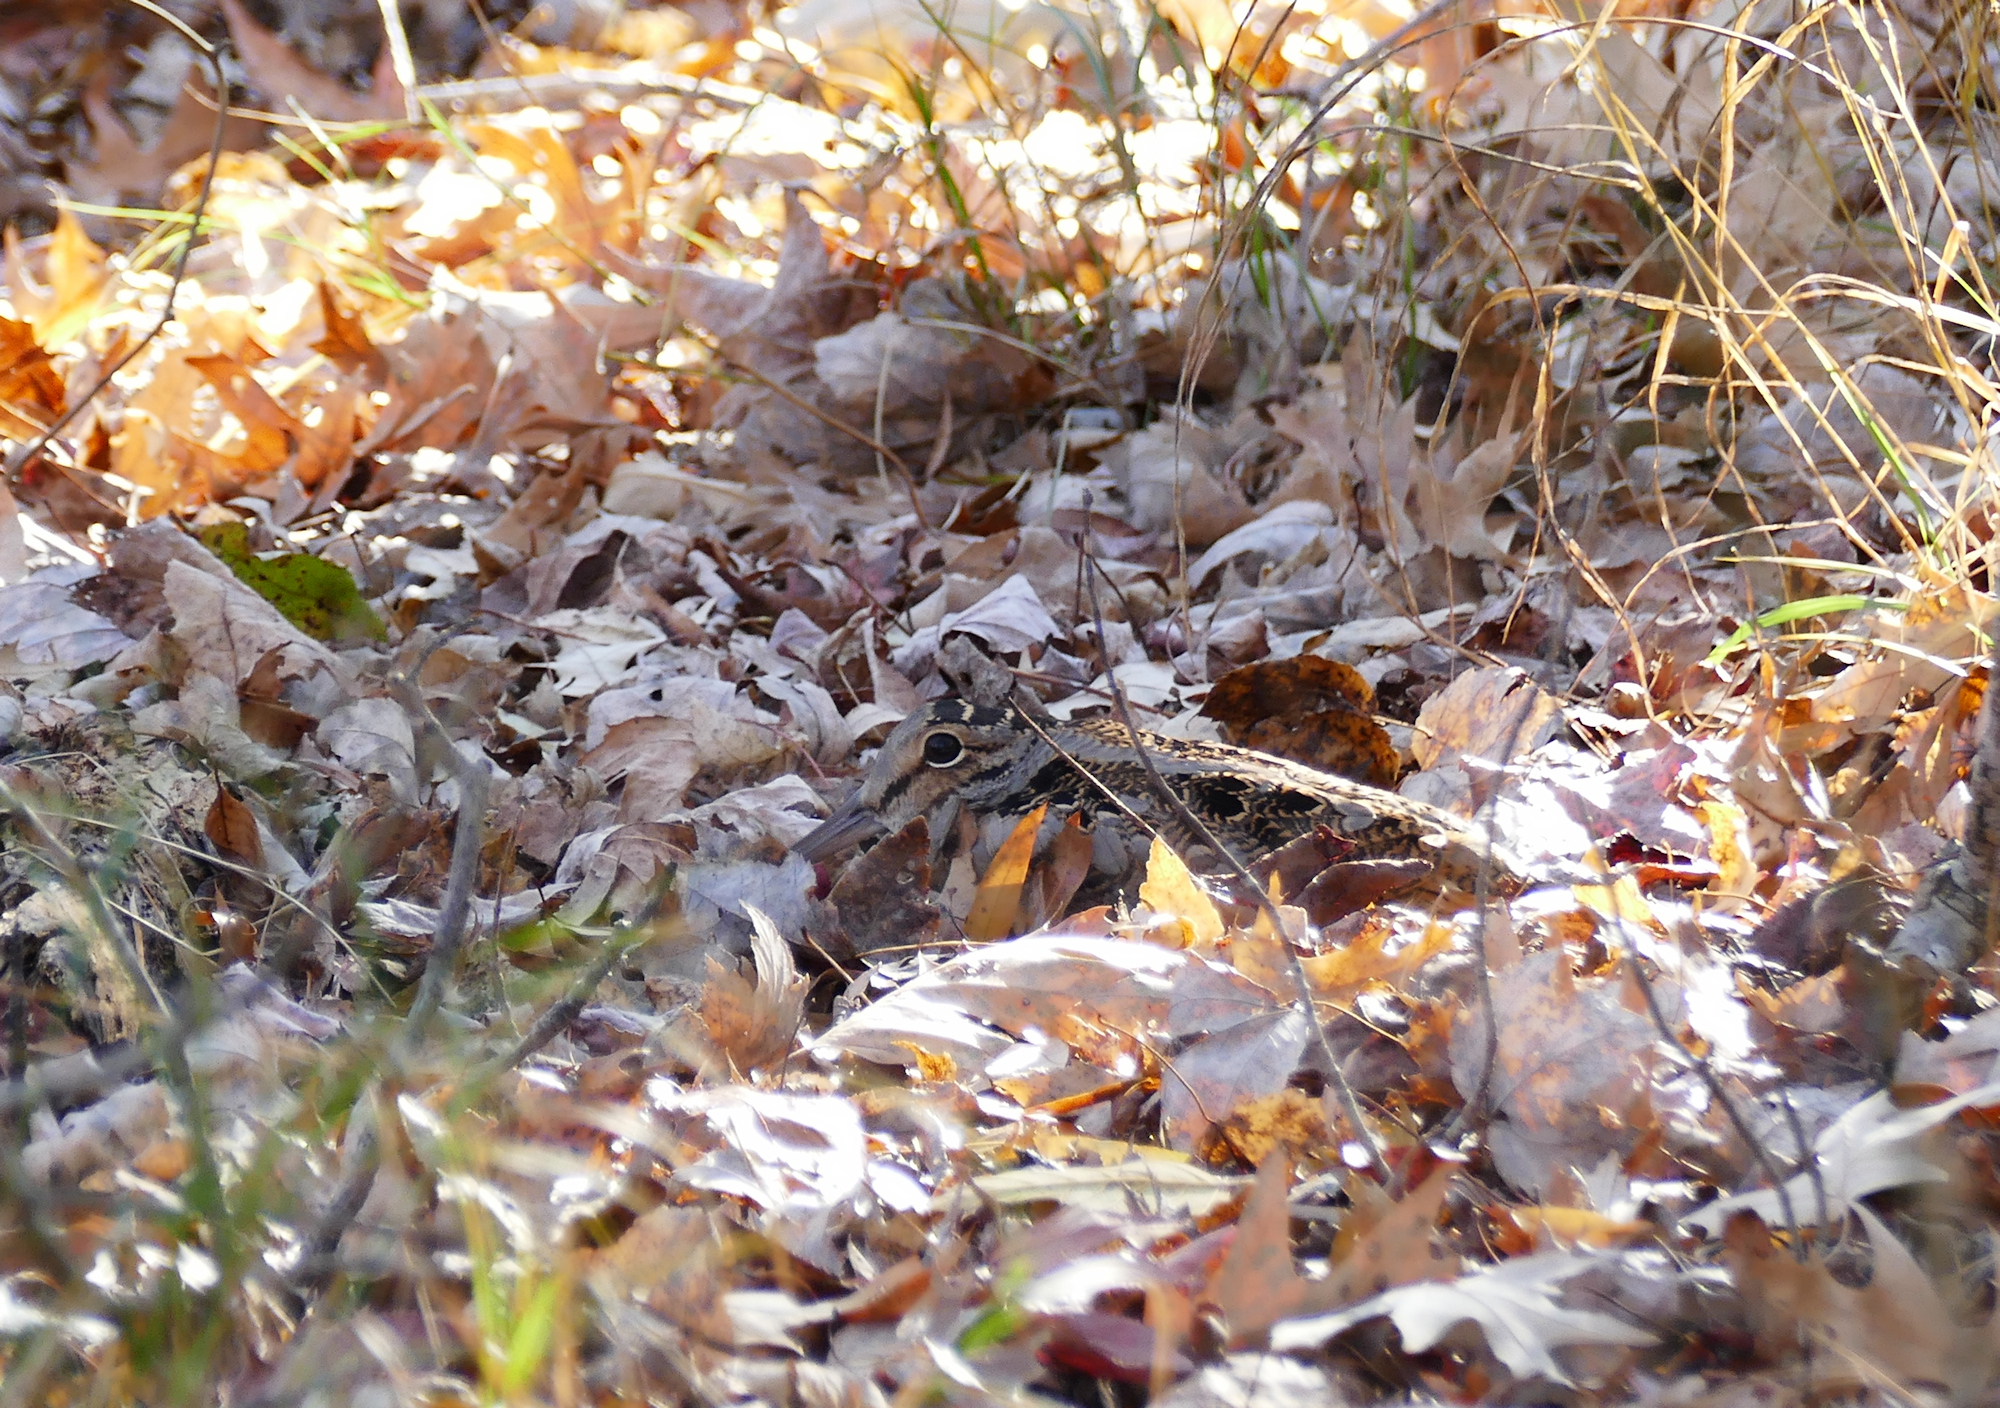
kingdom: Animalia
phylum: Chordata
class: Aves
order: Charadriiformes
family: Scolopacidae
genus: Scolopax
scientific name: Scolopax minor
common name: American woodcock
